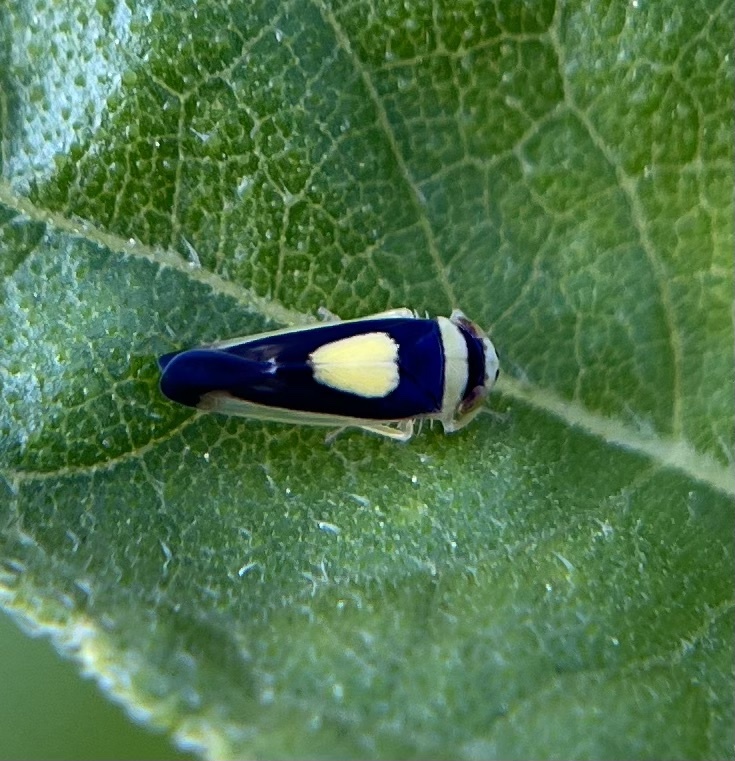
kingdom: Animalia
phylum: Arthropoda
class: Insecta
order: Hemiptera
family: Cicadellidae
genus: Colladonus
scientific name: Colladonus clitellarius
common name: The saddleback leafhopper
